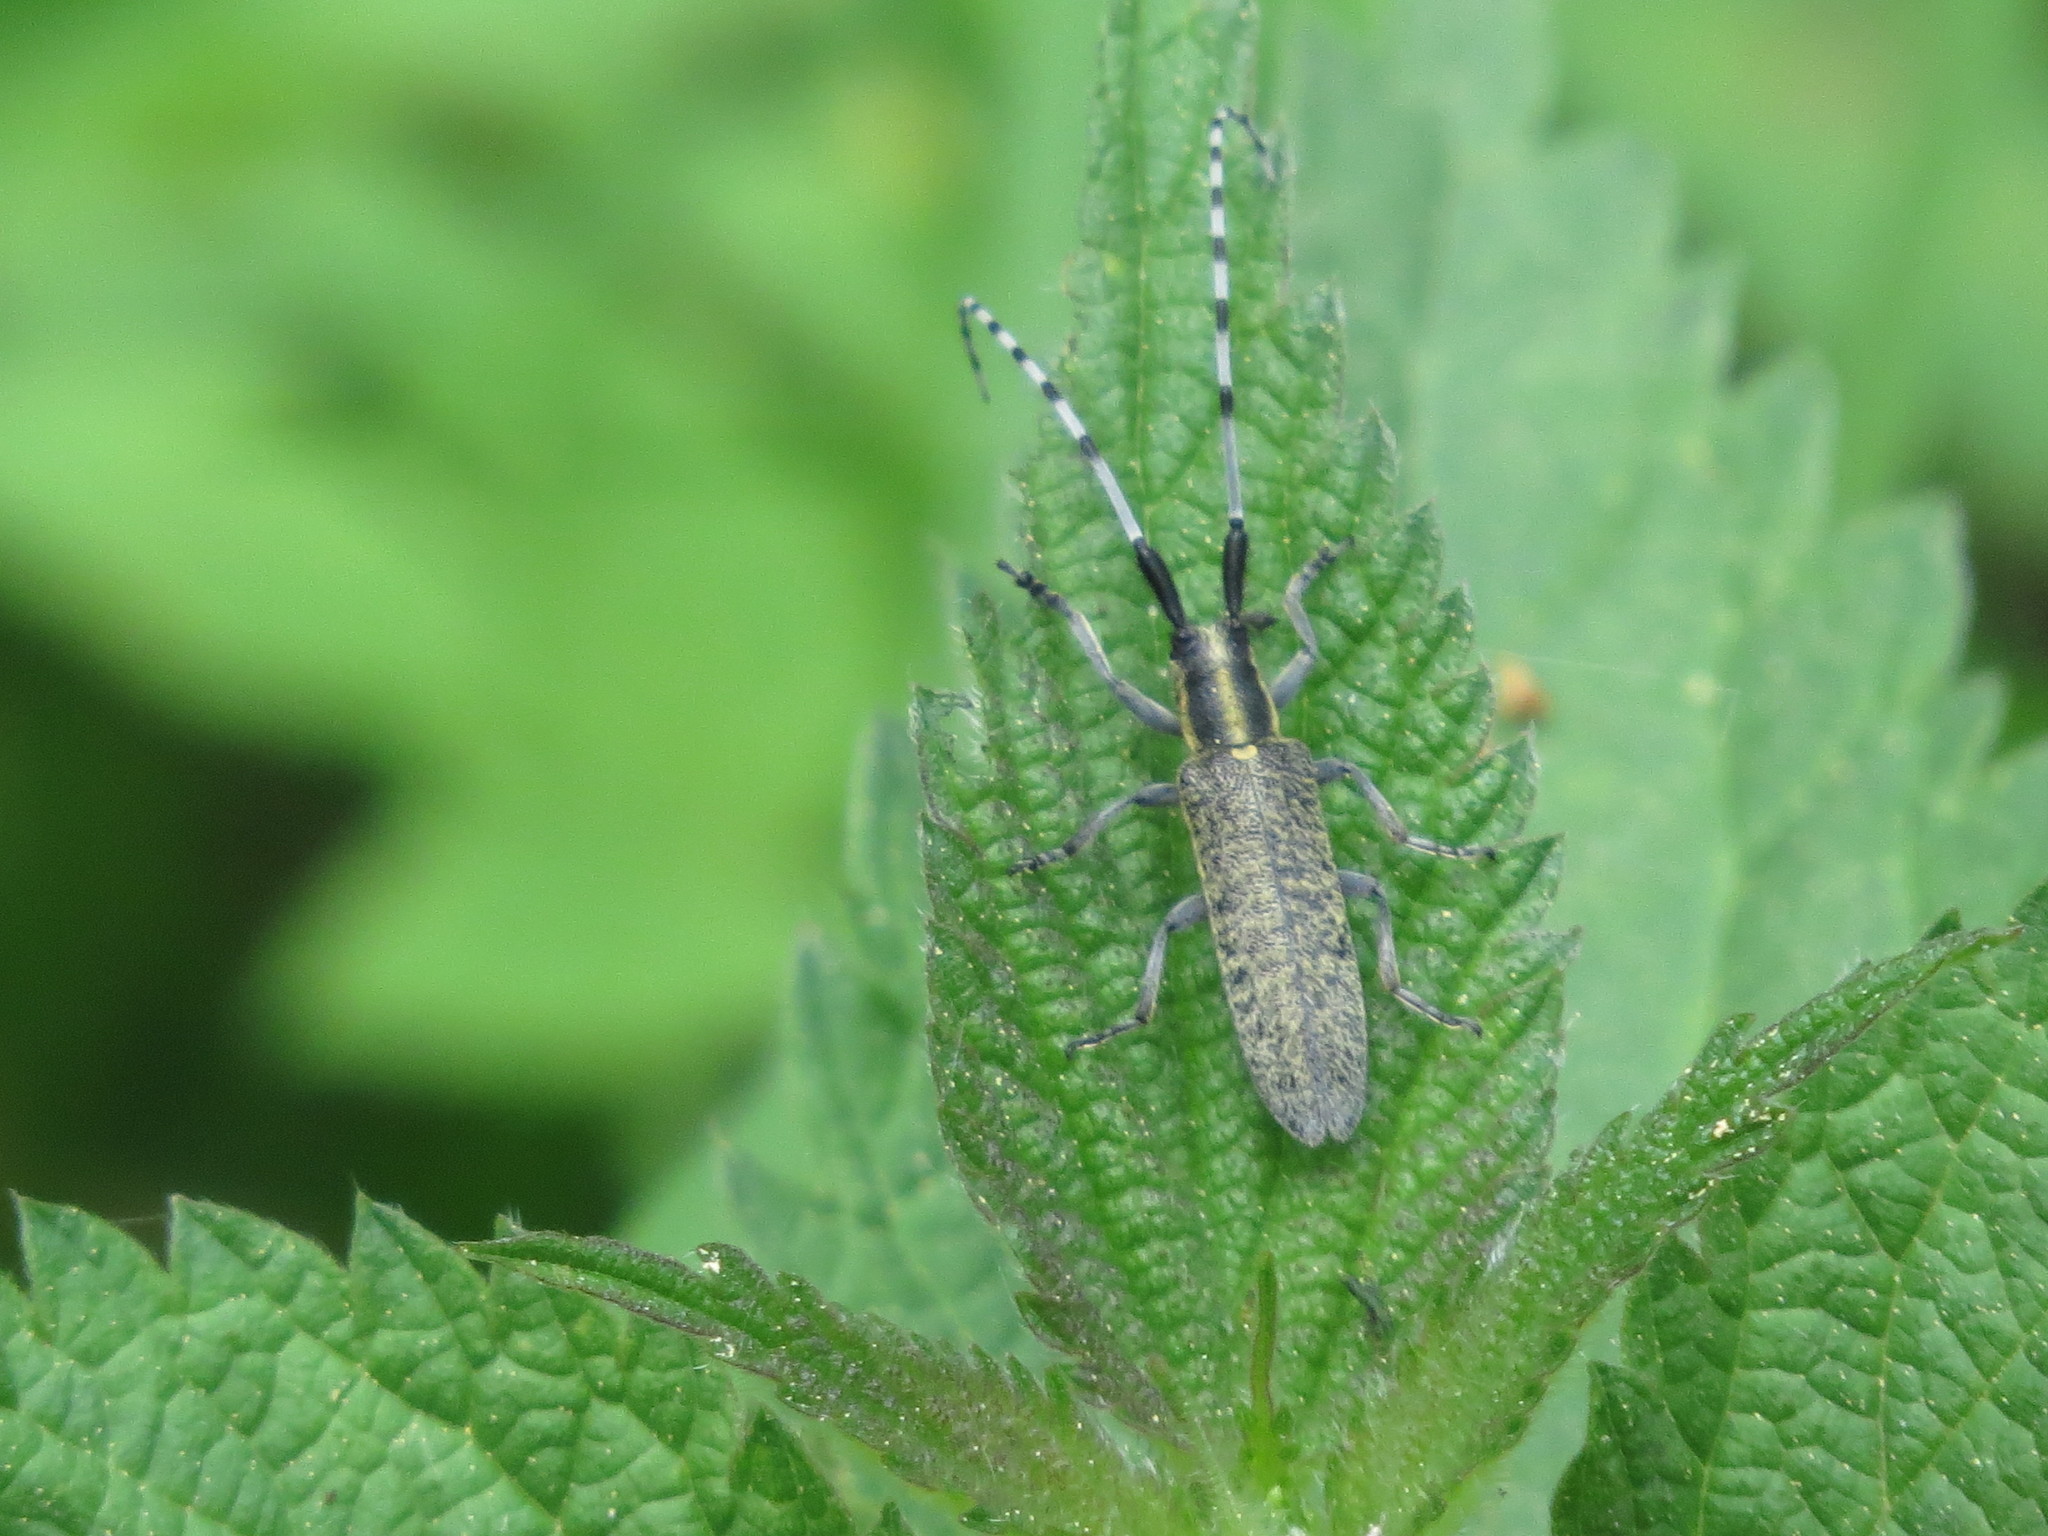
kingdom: Animalia
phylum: Arthropoda
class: Insecta
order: Coleoptera
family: Cerambycidae
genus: Agapanthia
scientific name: Agapanthia villosoviridescens
